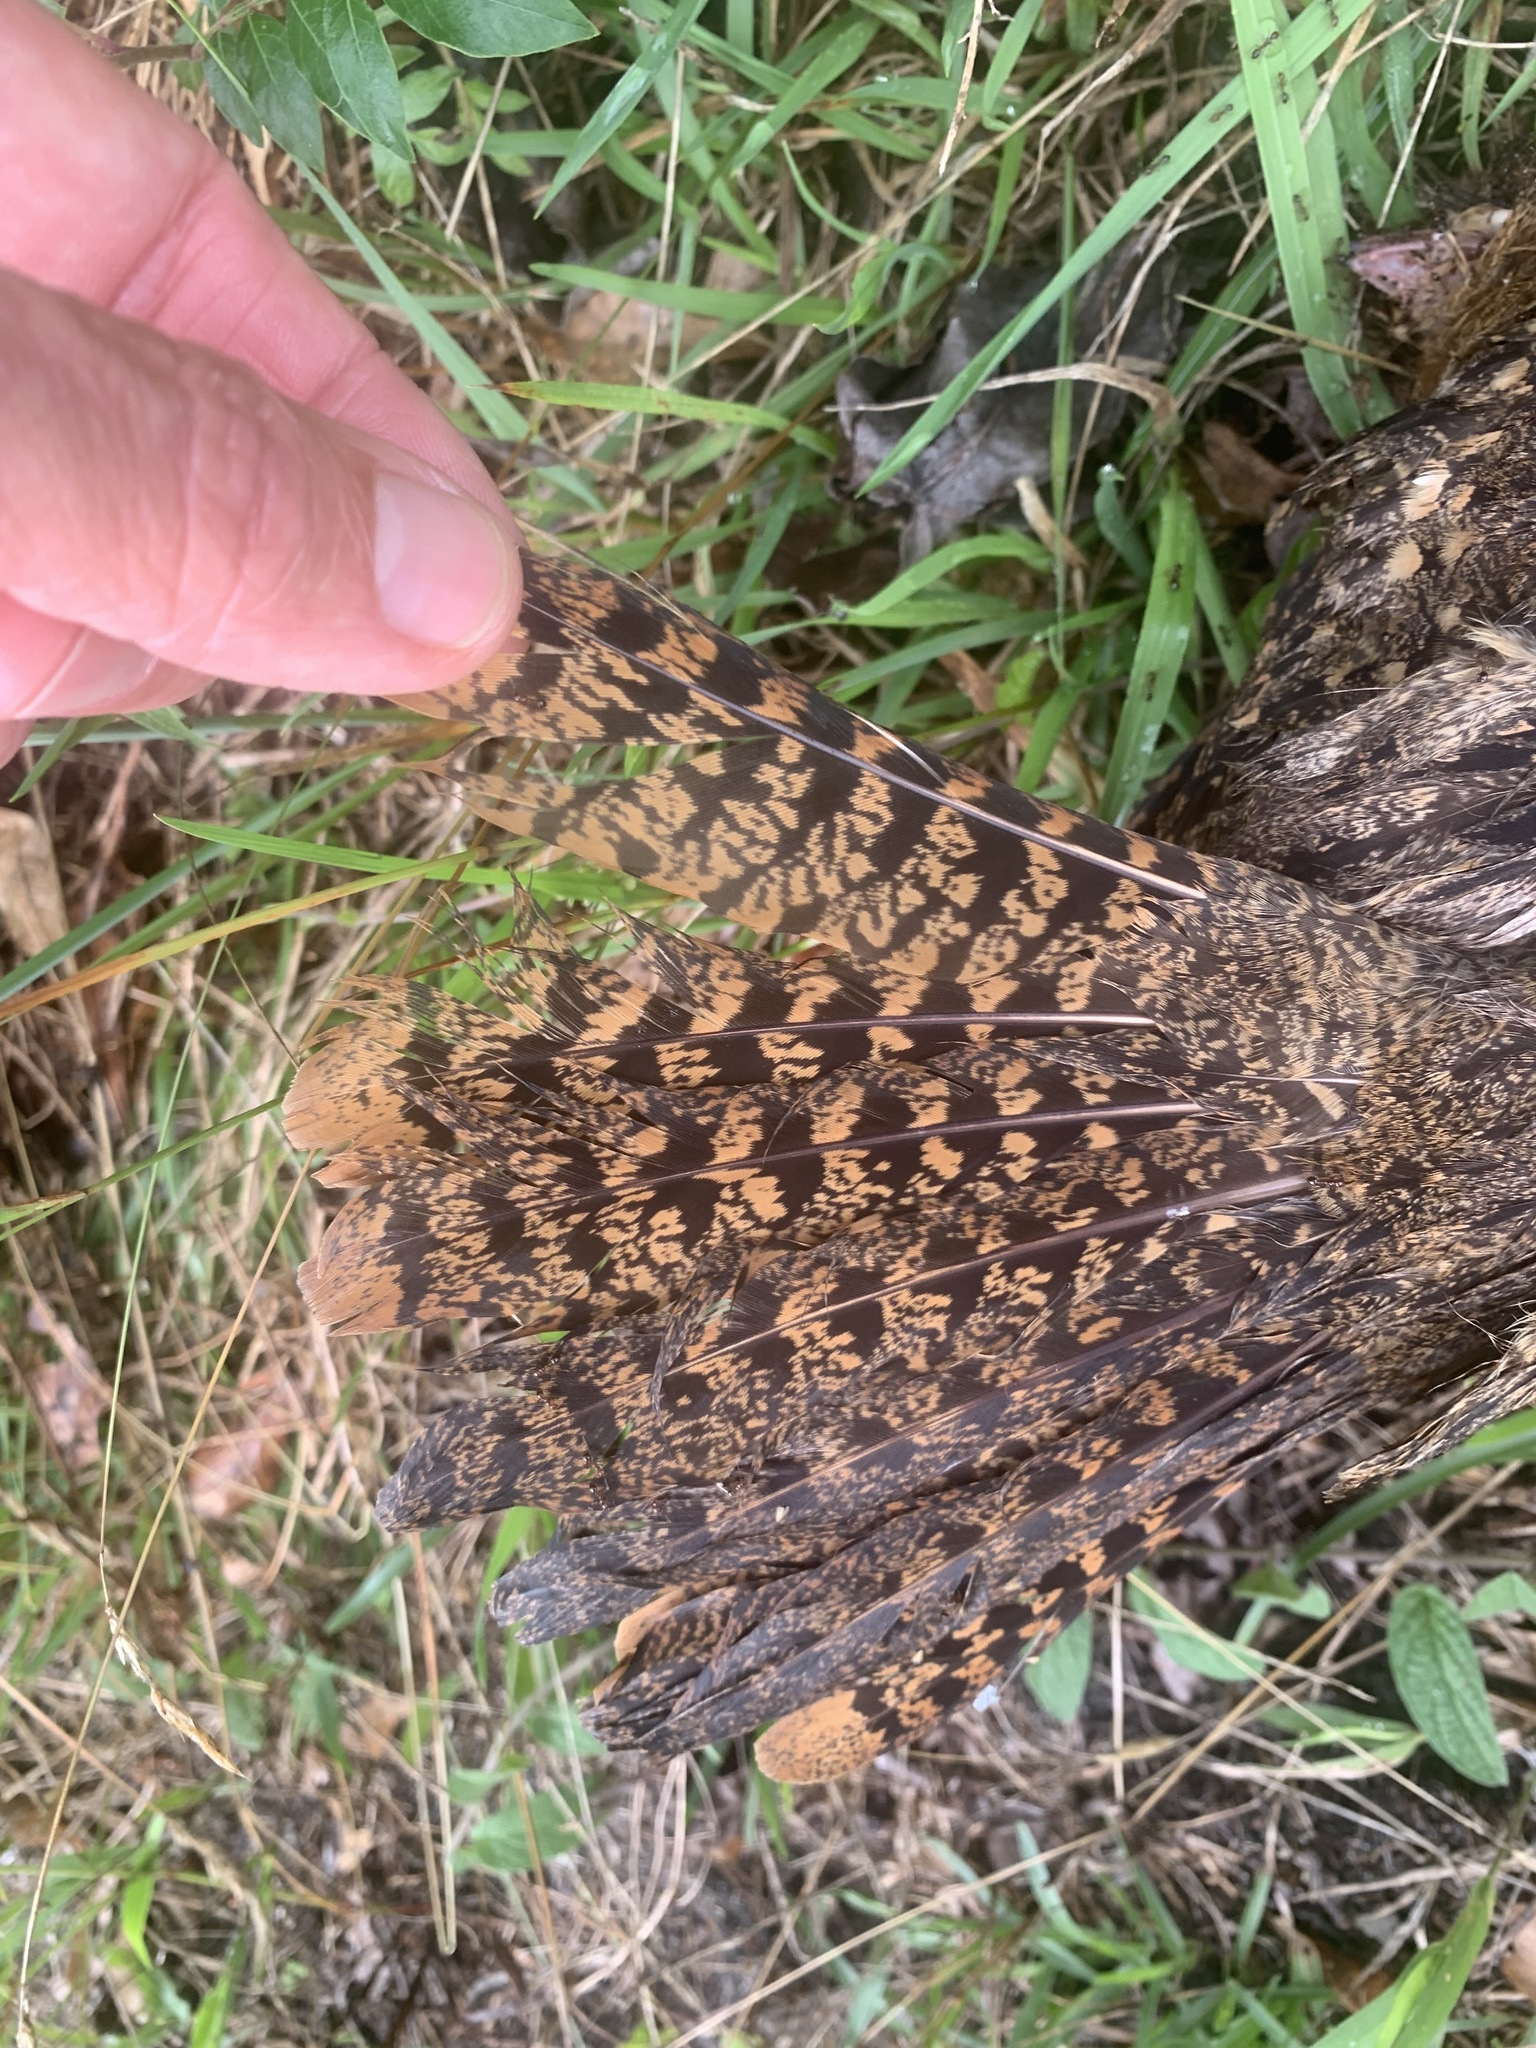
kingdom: Animalia
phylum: Chordata
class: Aves
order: Caprimulgiformes
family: Caprimulgidae
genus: Antrostomus
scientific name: Antrostomus carolinensis
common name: Chuck-will's-widow
